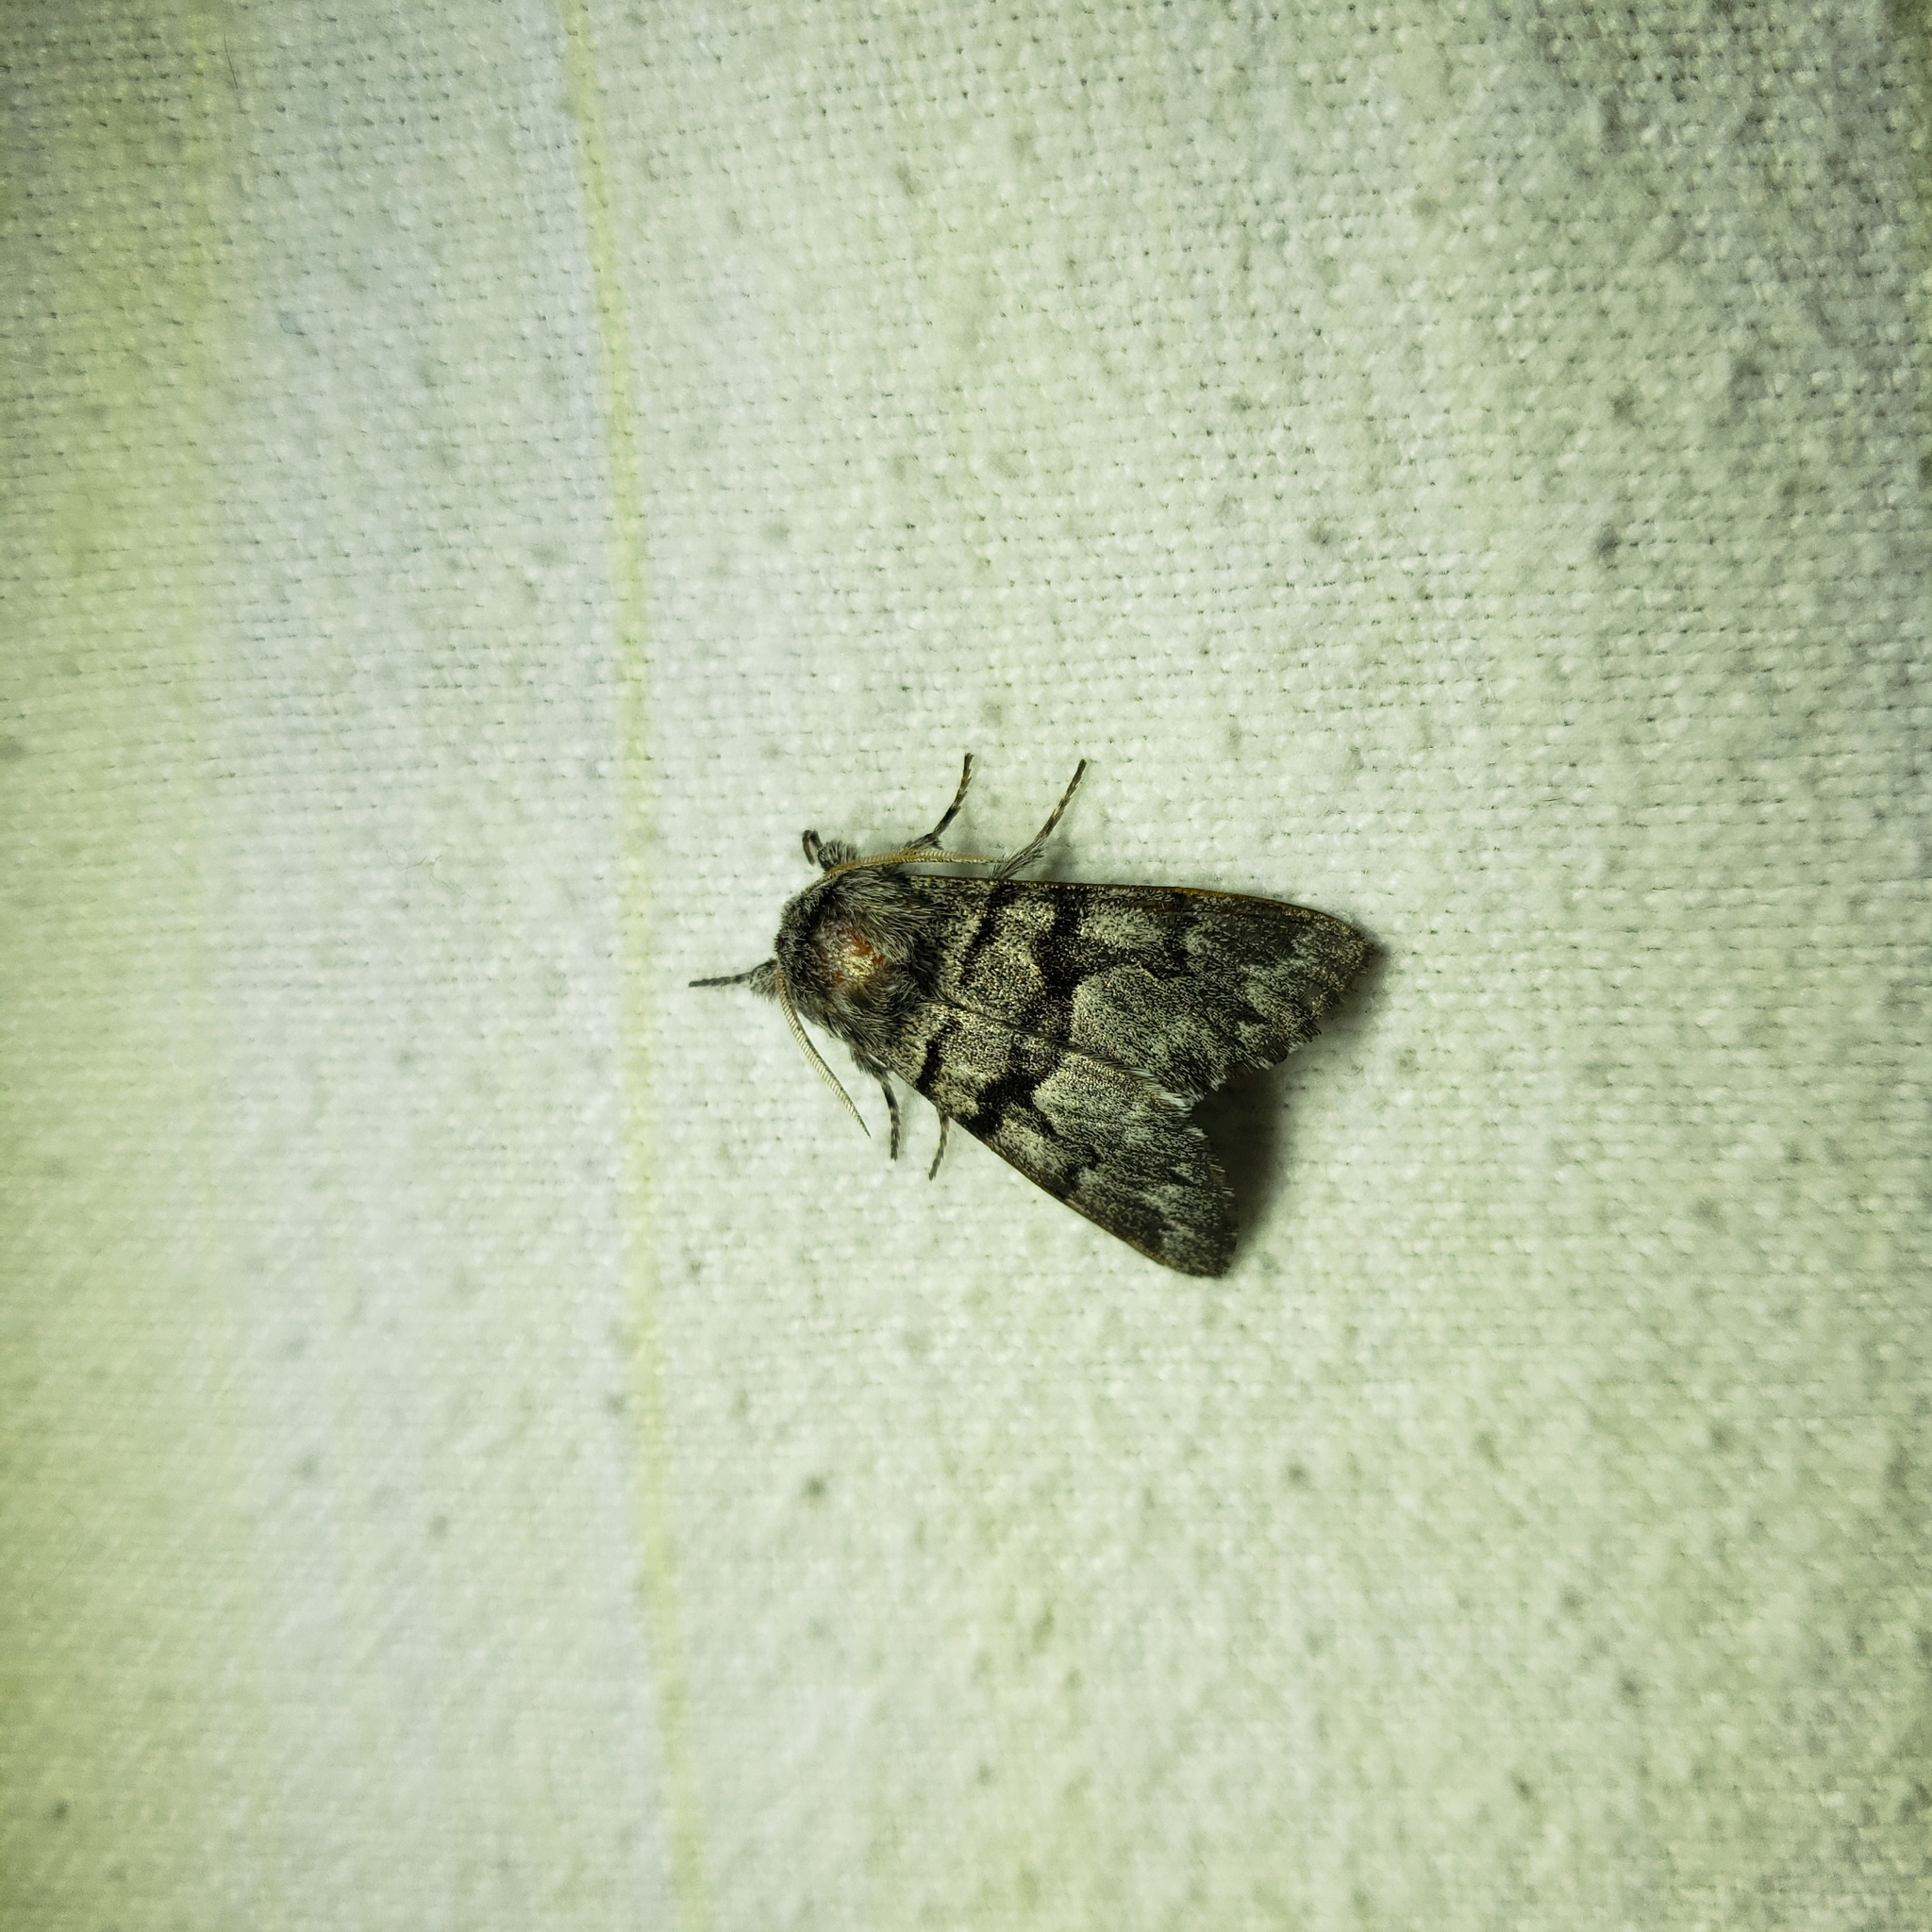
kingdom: Animalia
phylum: Arthropoda
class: Insecta
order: Lepidoptera
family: Noctuidae
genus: Panthea
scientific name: Panthea furcilla
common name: Eastern panthea moth
